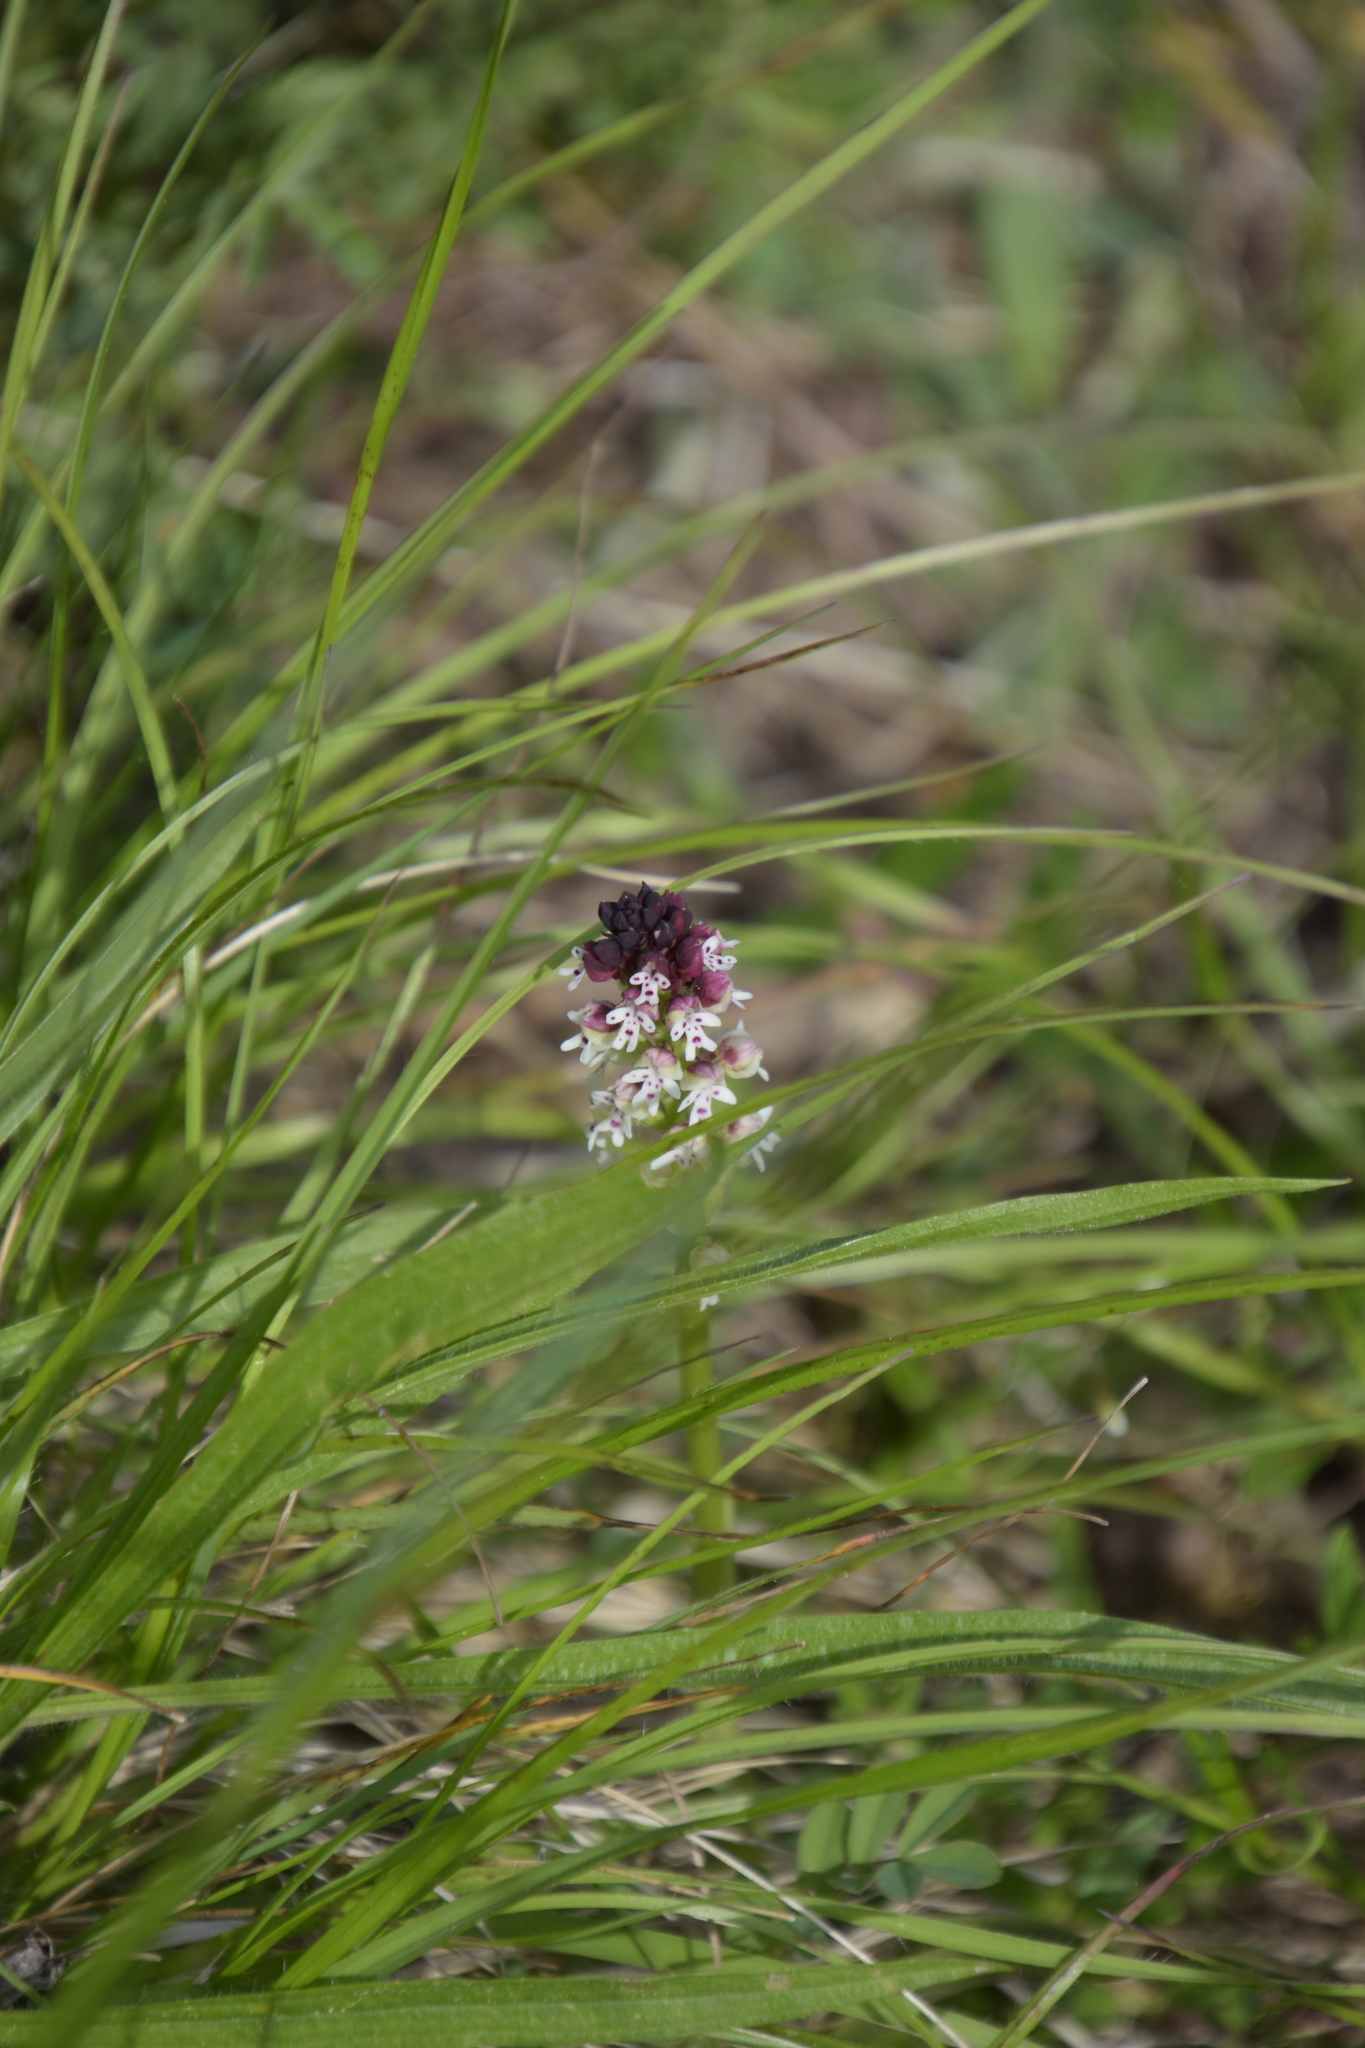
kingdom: Plantae
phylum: Tracheophyta
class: Liliopsida
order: Asparagales
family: Orchidaceae
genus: Neotinea
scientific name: Neotinea ustulata
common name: Burnt orchid
